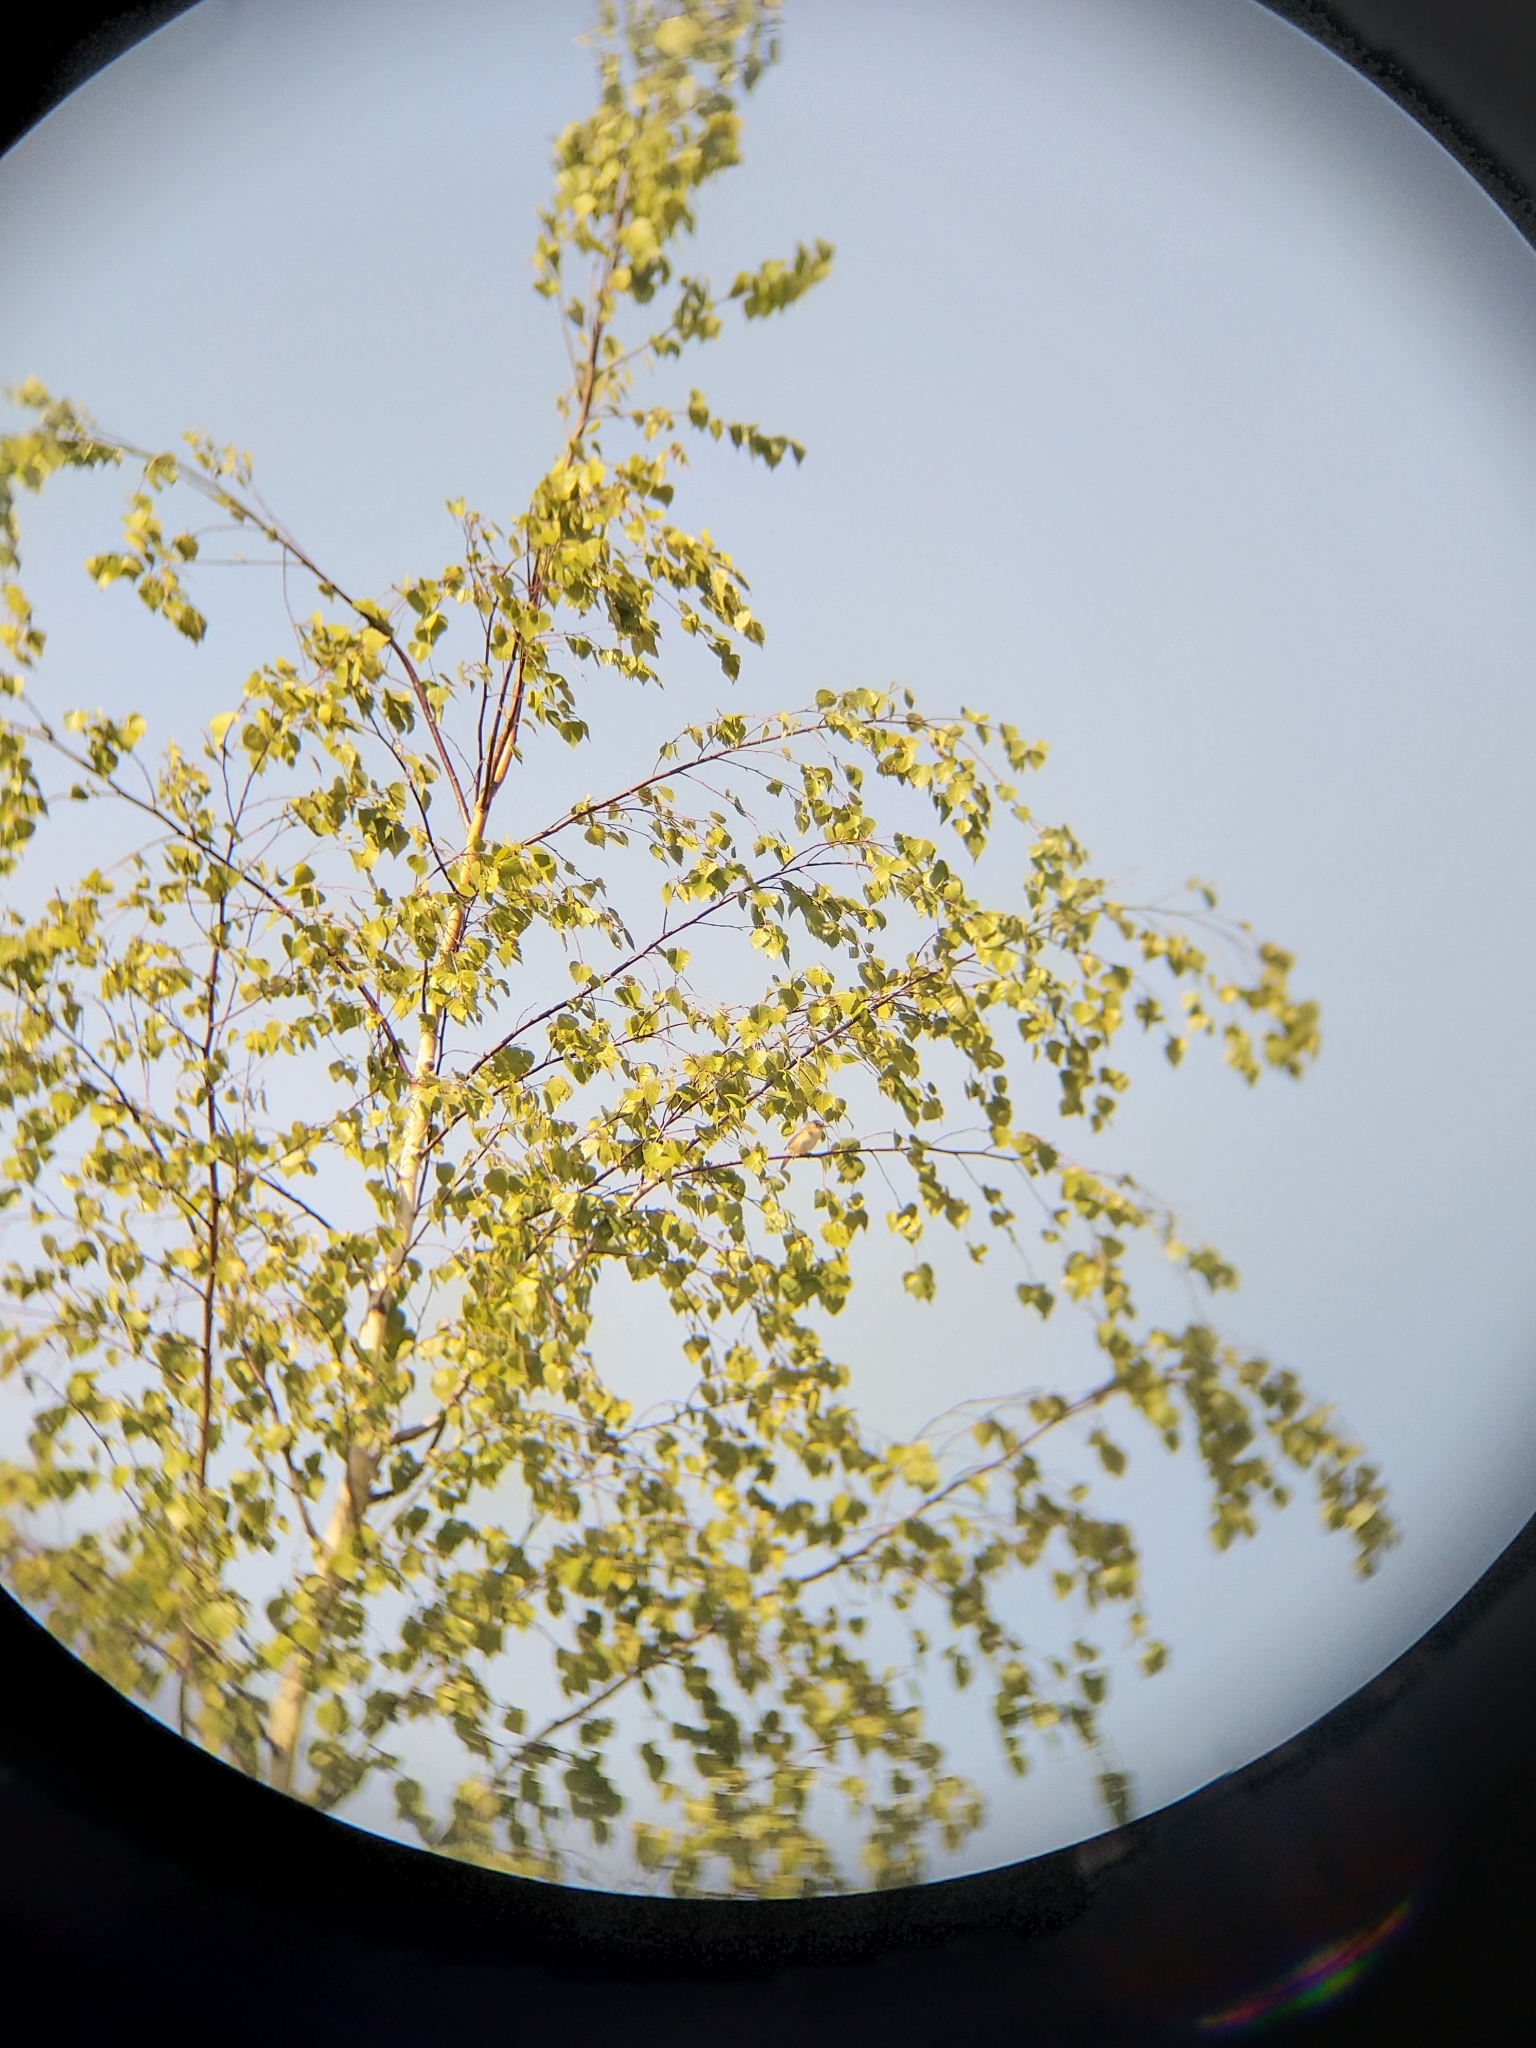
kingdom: Animalia
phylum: Chordata
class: Aves
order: Passeriformes
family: Acrocephalidae
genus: Acrocephalus
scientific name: Acrocephalus schoenobaenus
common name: Sedge warbler
